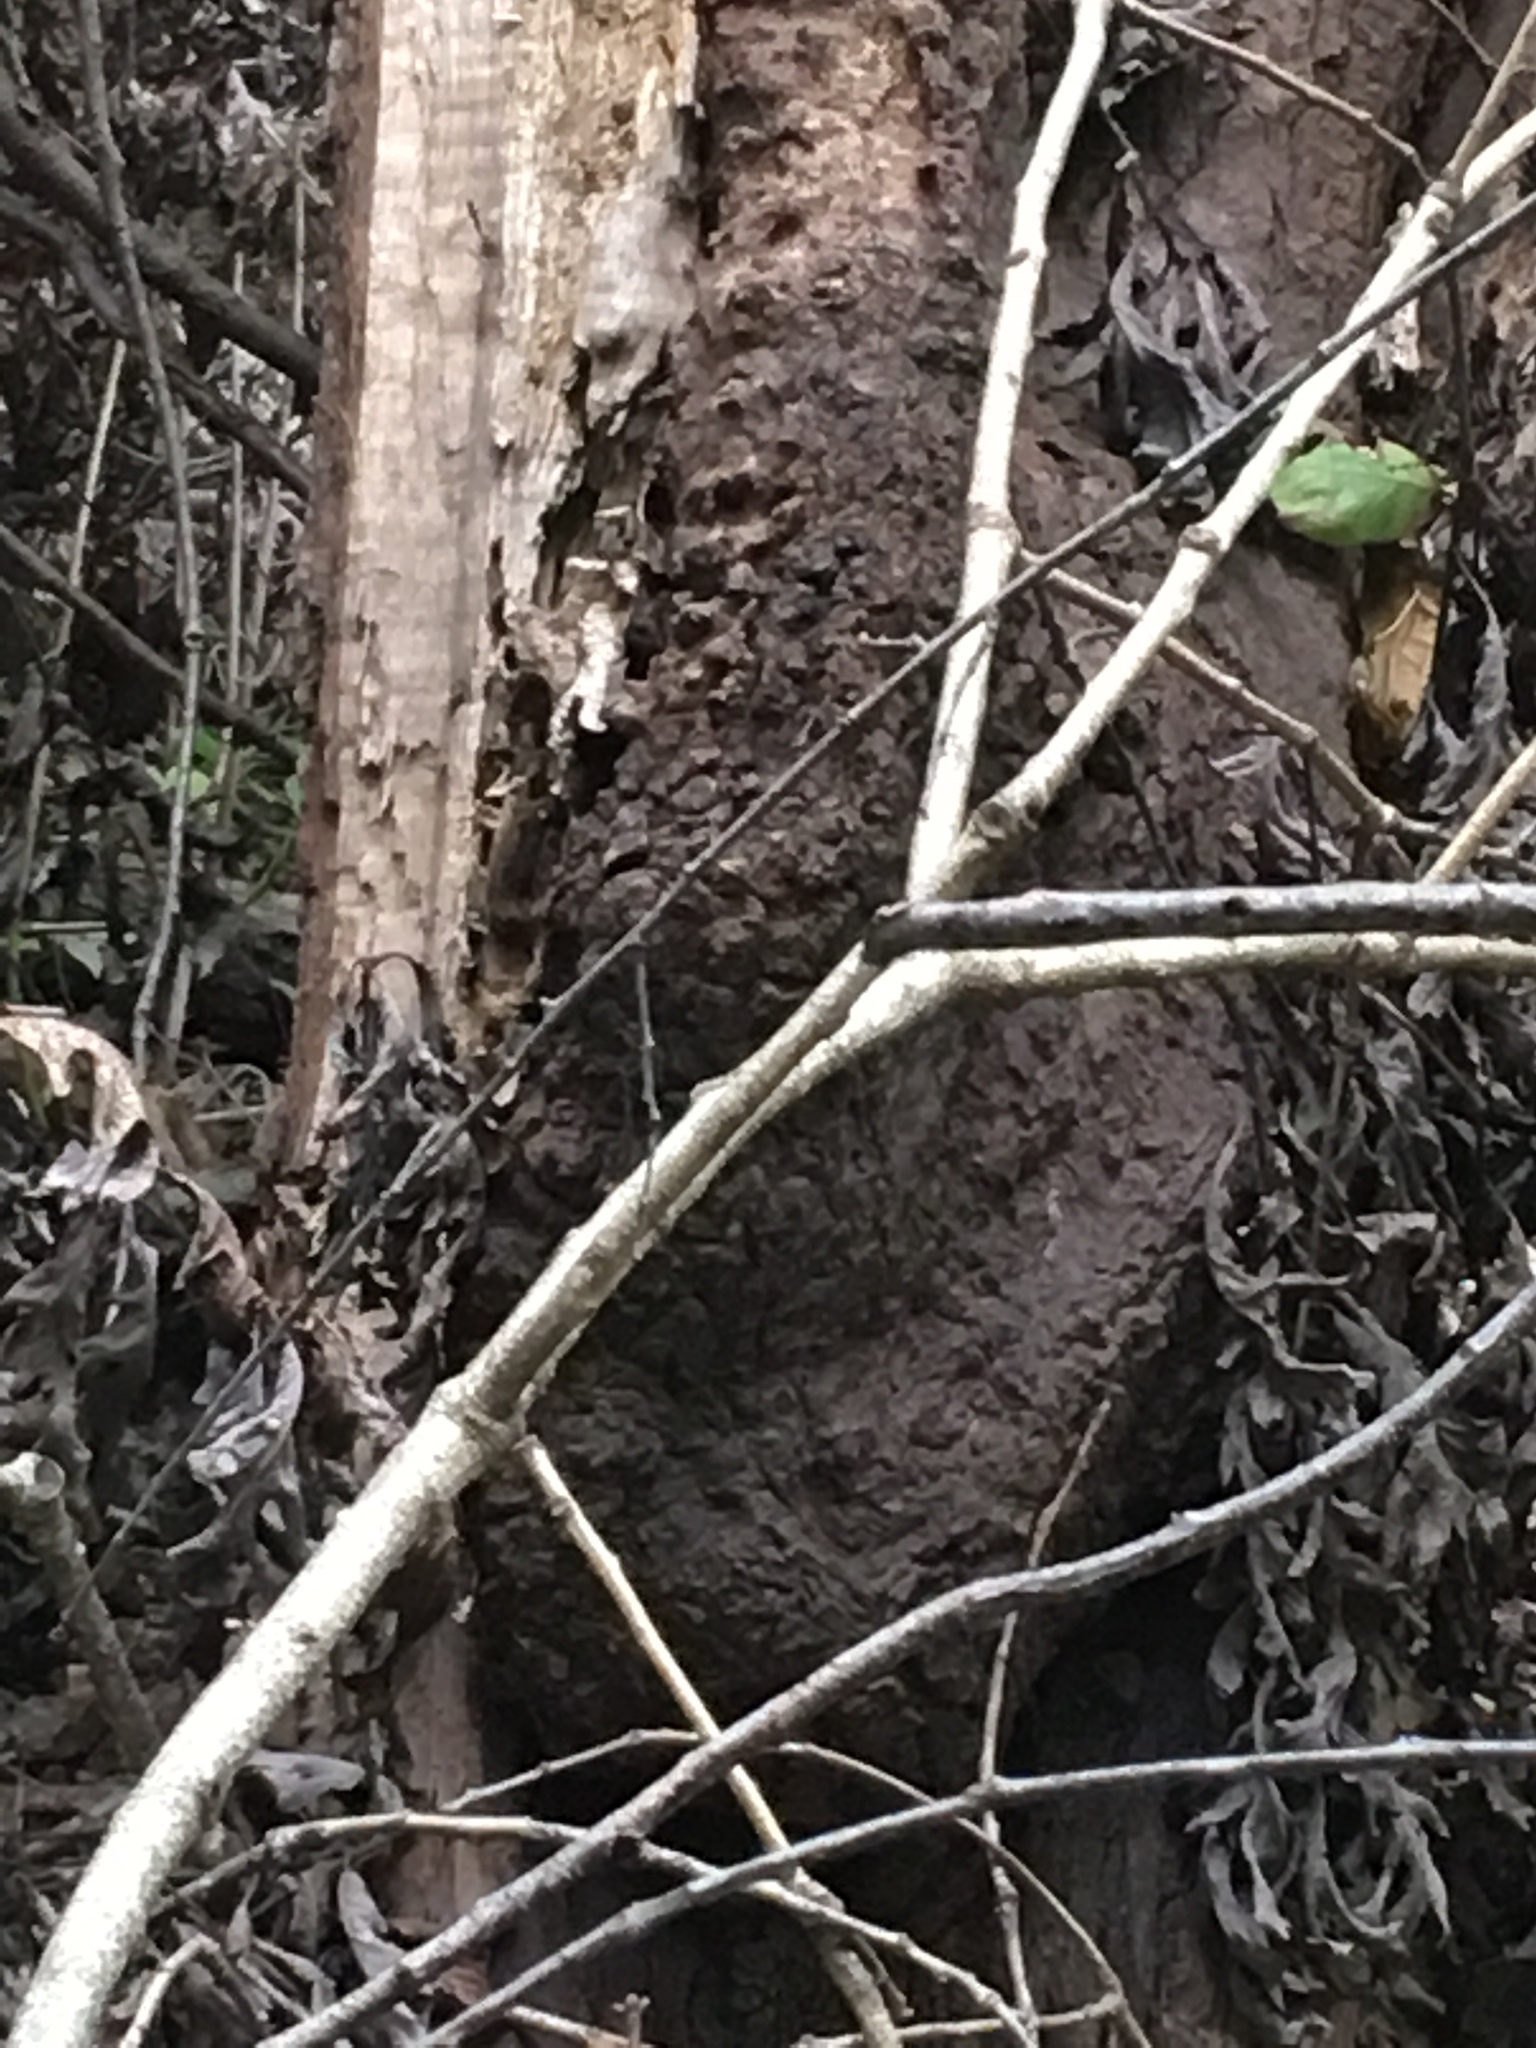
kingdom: Bacteria
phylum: Proteobacteria
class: Alphaproteobacteria
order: Rhizobiales
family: Rhizobiaceae
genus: Rhizobium
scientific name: Rhizobium Agrobacterium radiobacter
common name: Bacterial crown gall
